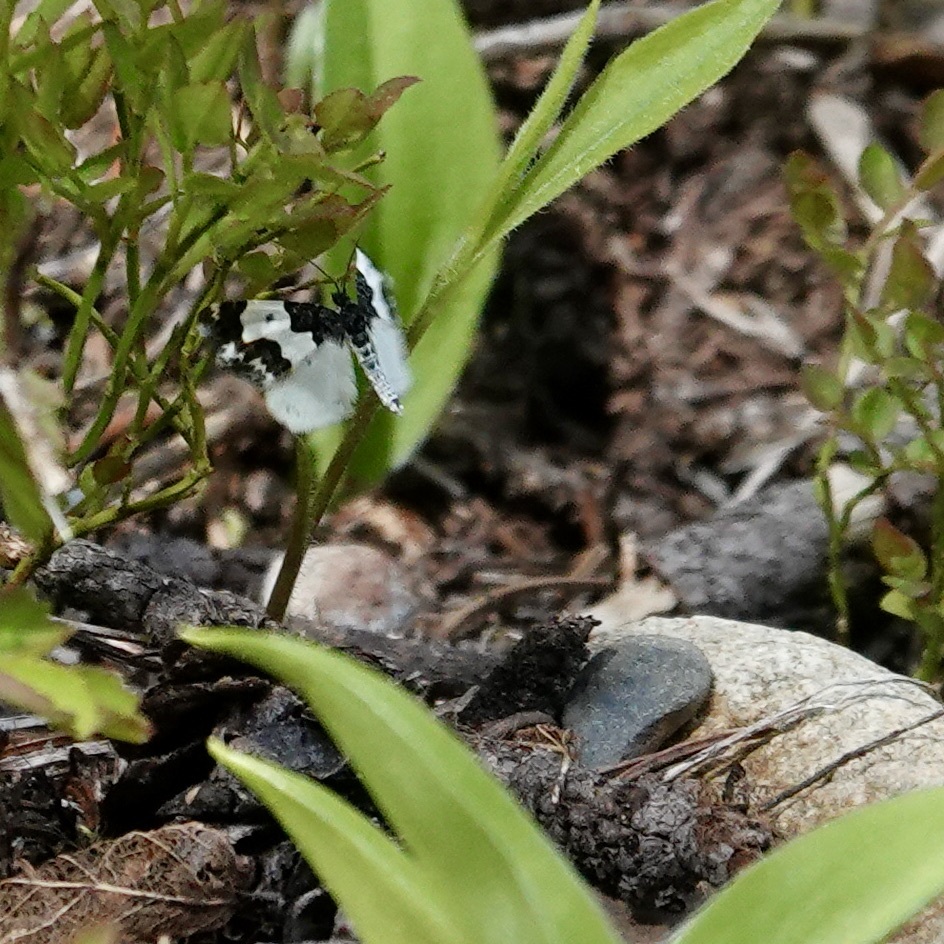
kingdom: Animalia
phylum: Arthropoda
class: Insecta
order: Lepidoptera
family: Geometridae
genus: Mesoleuca
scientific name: Mesoleuca gratulata
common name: Half-white carpet moth
